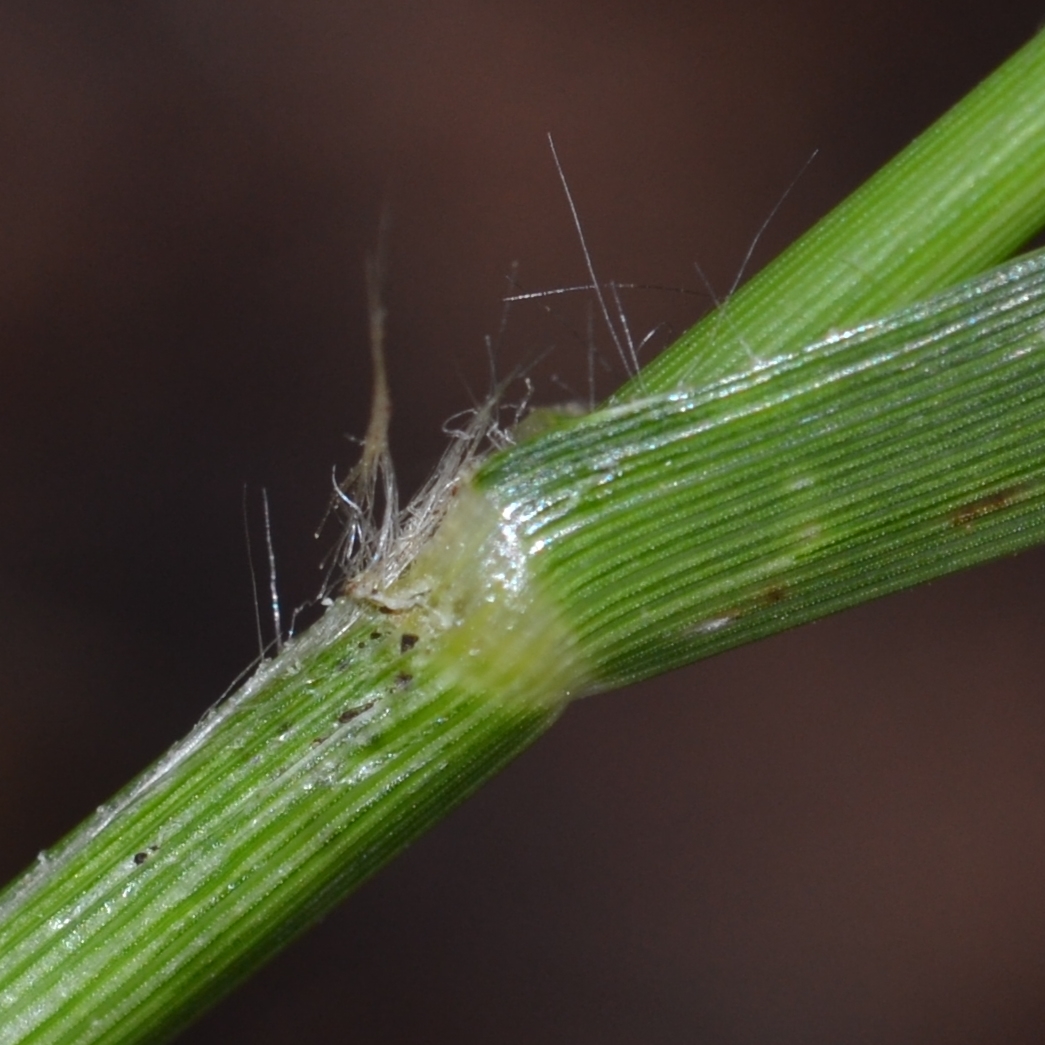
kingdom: Plantae
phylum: Tracheophyta
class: Liliopsida
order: Poales
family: Poaceae
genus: Eleusine
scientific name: Eleusine indica
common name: Yard-grass
